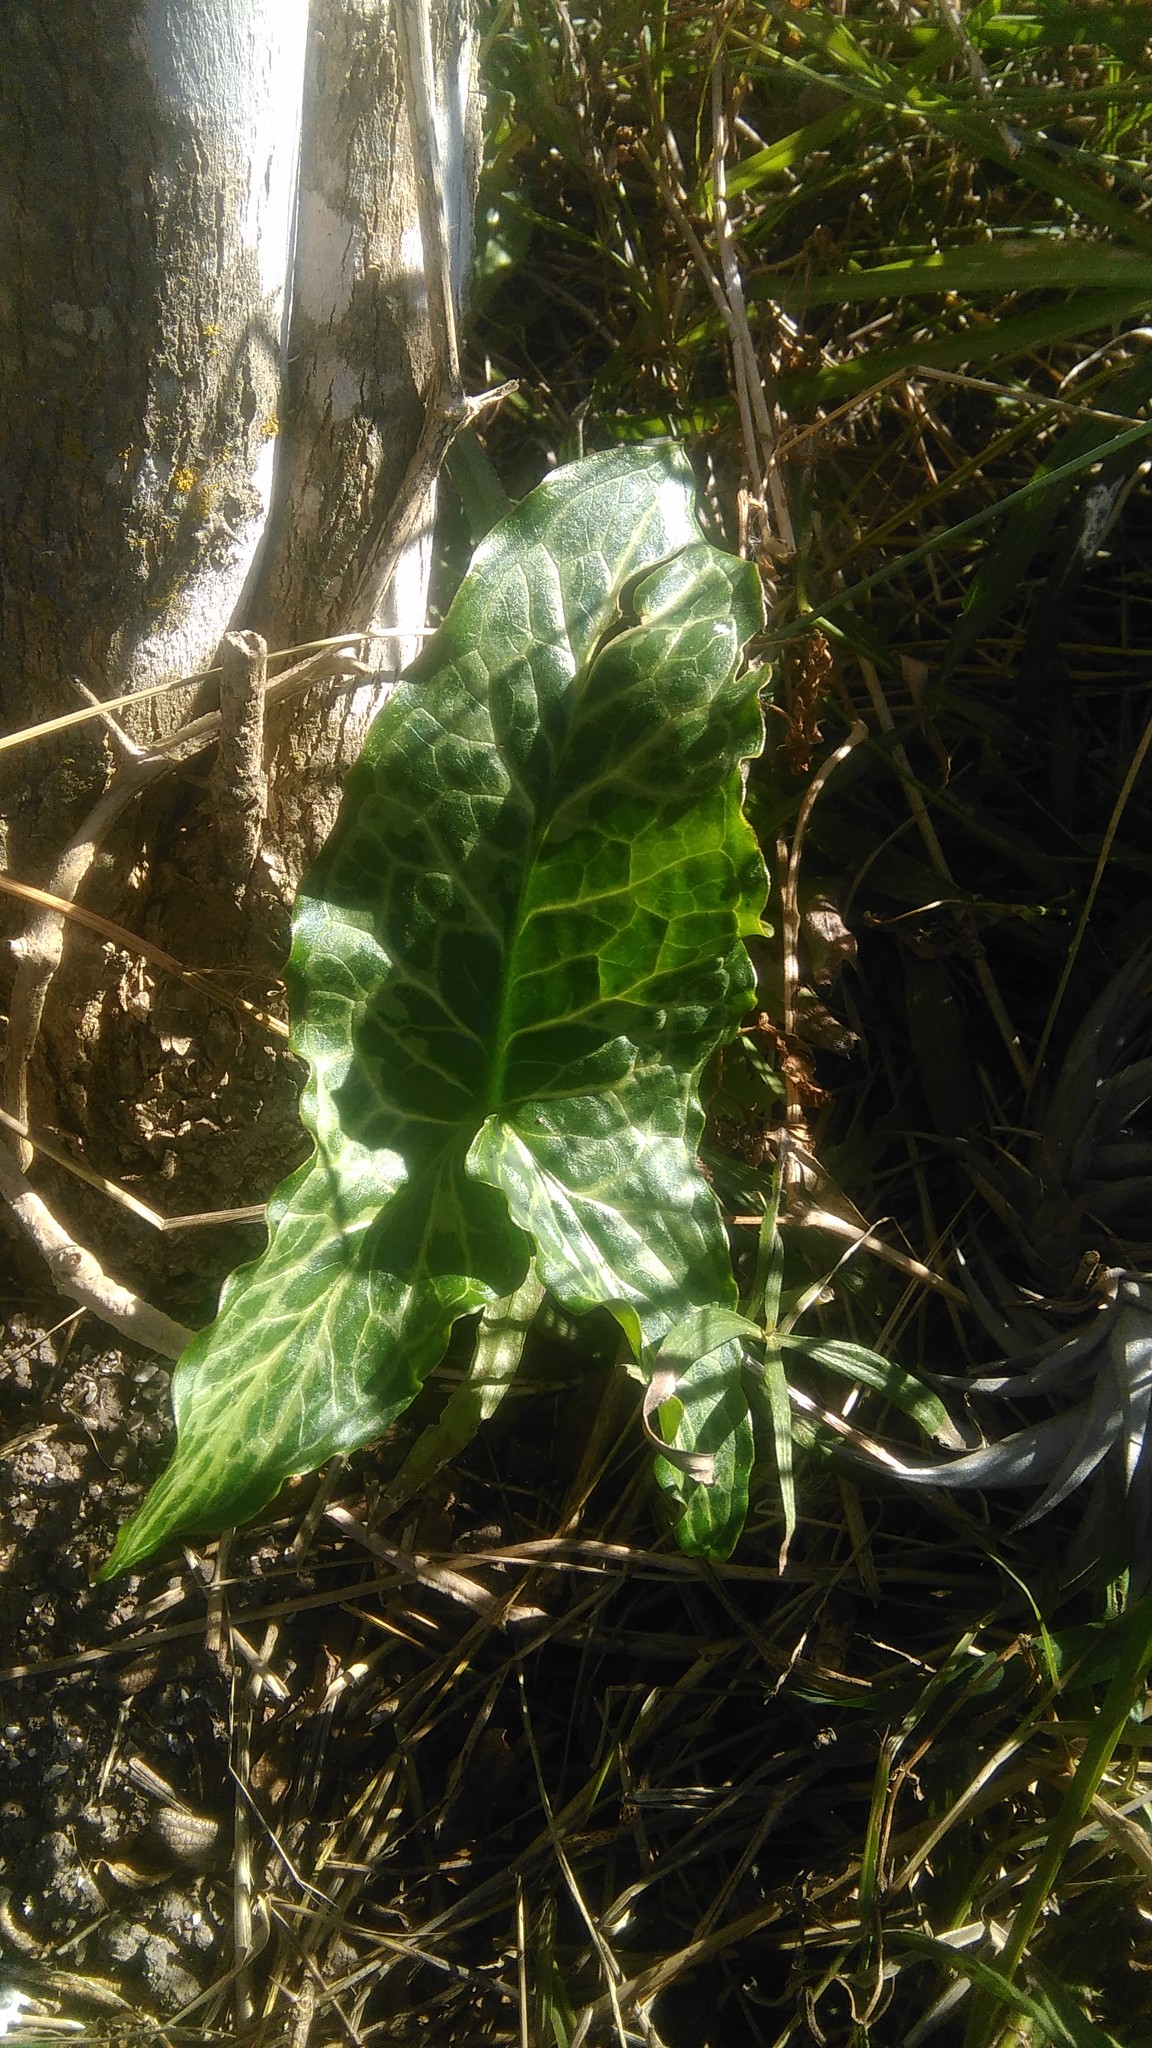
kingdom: Plantae
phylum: Tracheophyta
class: Liliopsida
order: Alismatales
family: Araceae
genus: Arum
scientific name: Arum italicum
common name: Italian lords-and-ladies
